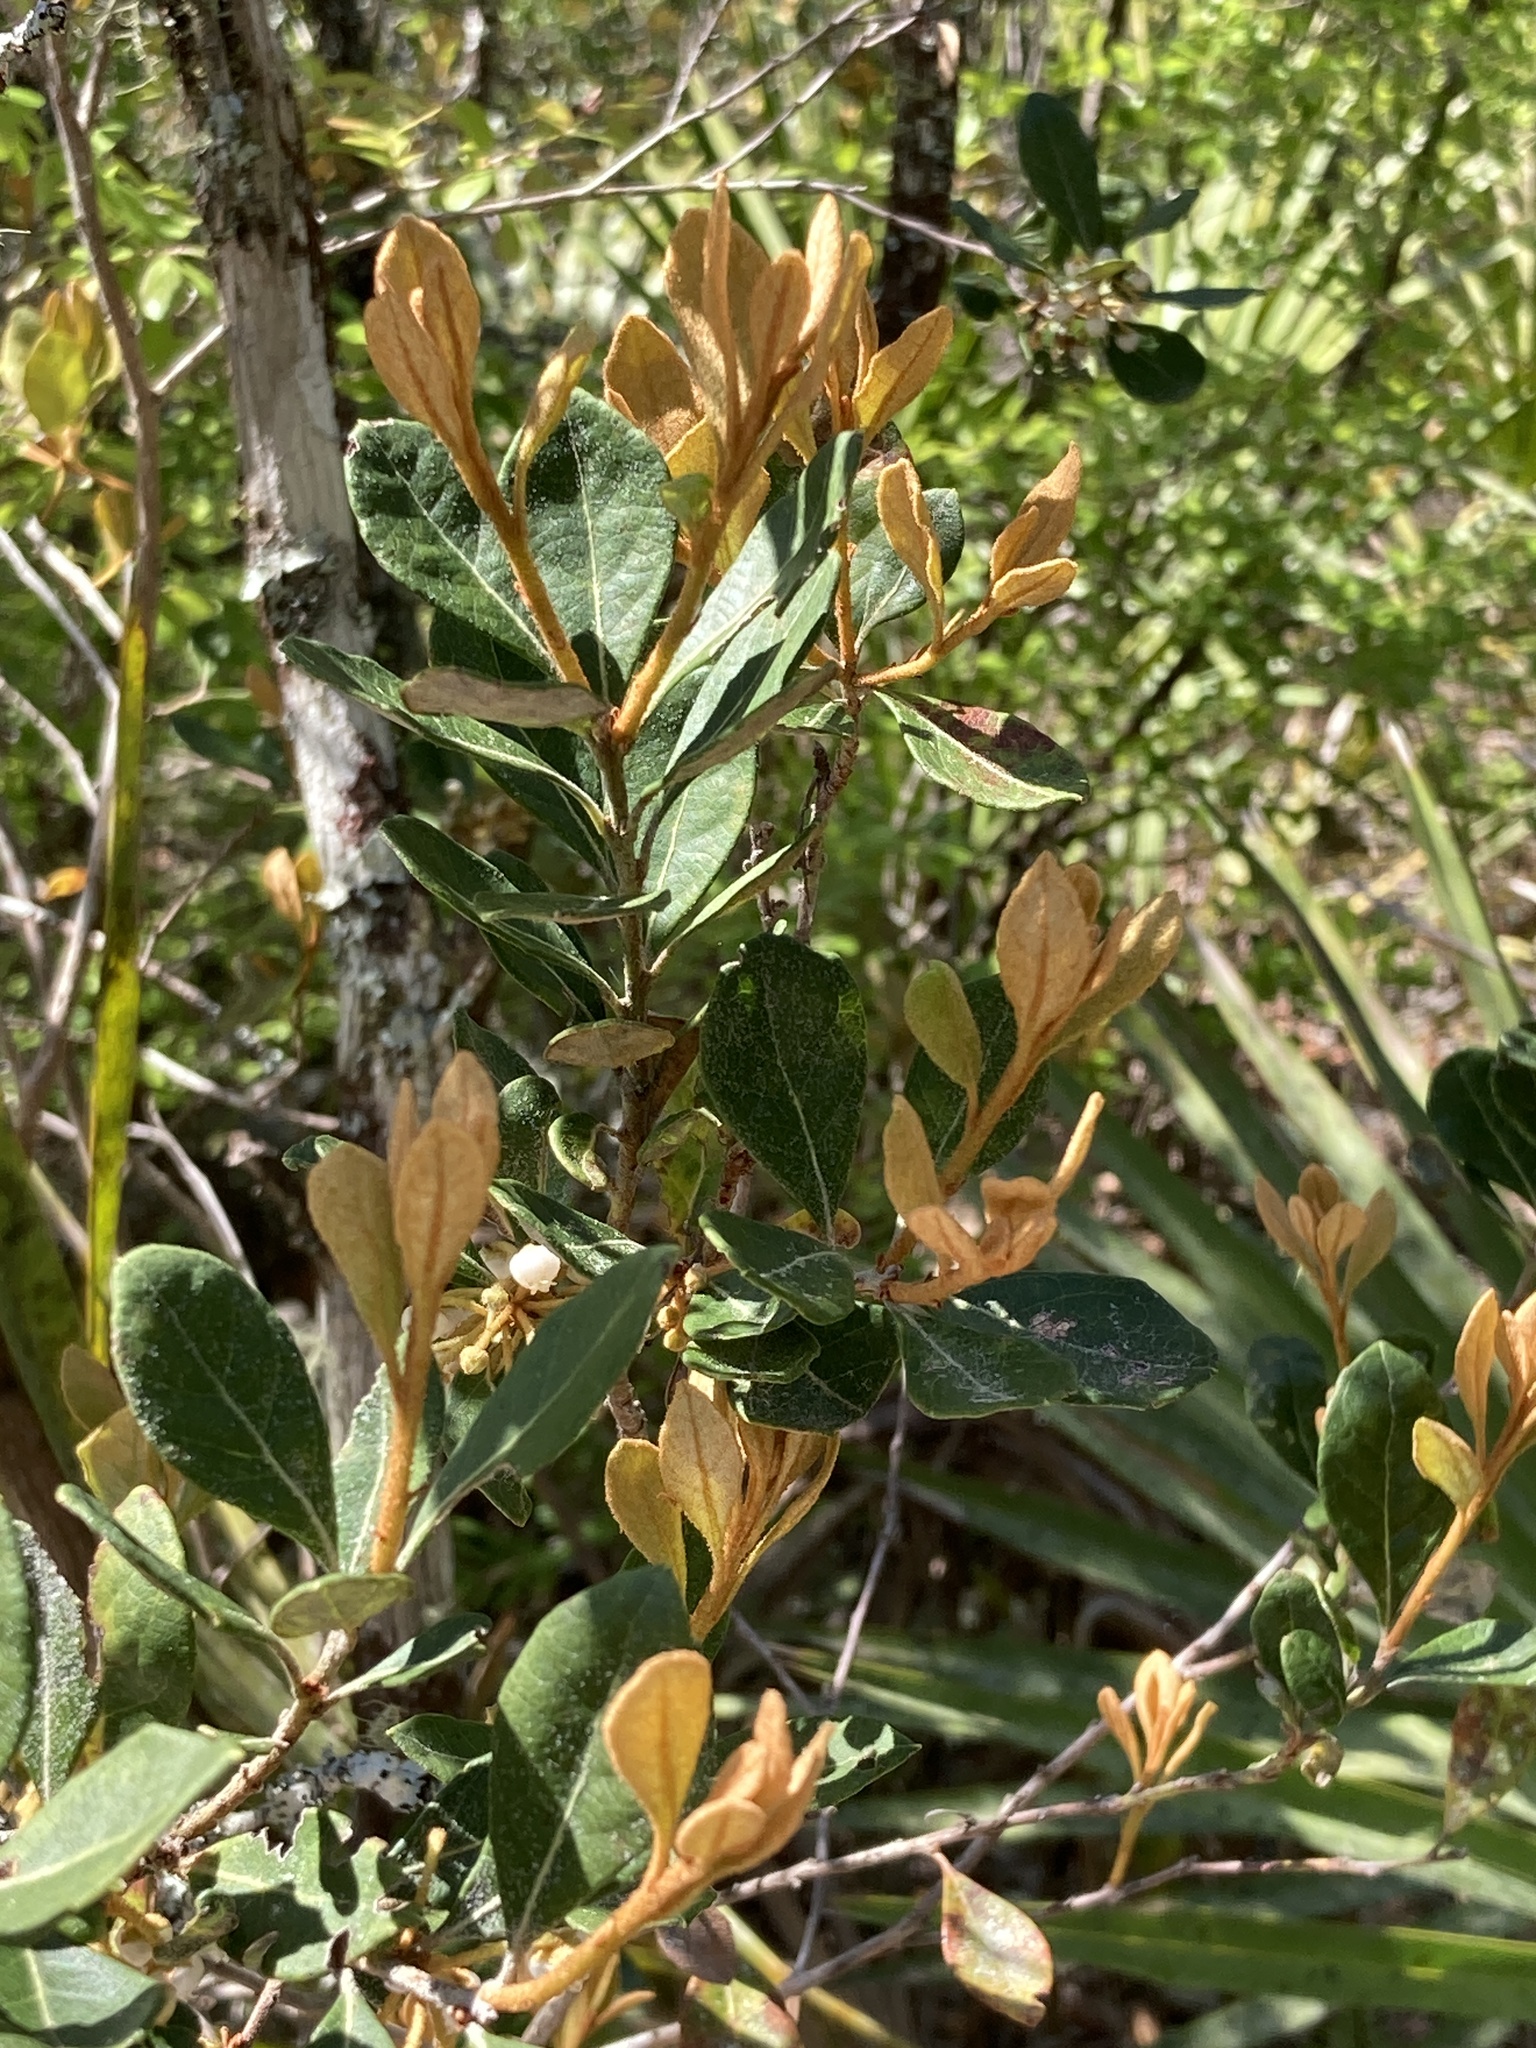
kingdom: Plantae
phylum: Tracheophyta
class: Magnoliopsida
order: Ericales
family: Ericaceae
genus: Lyonia
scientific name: Lyonia ferruginea
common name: Rusty lyonia
